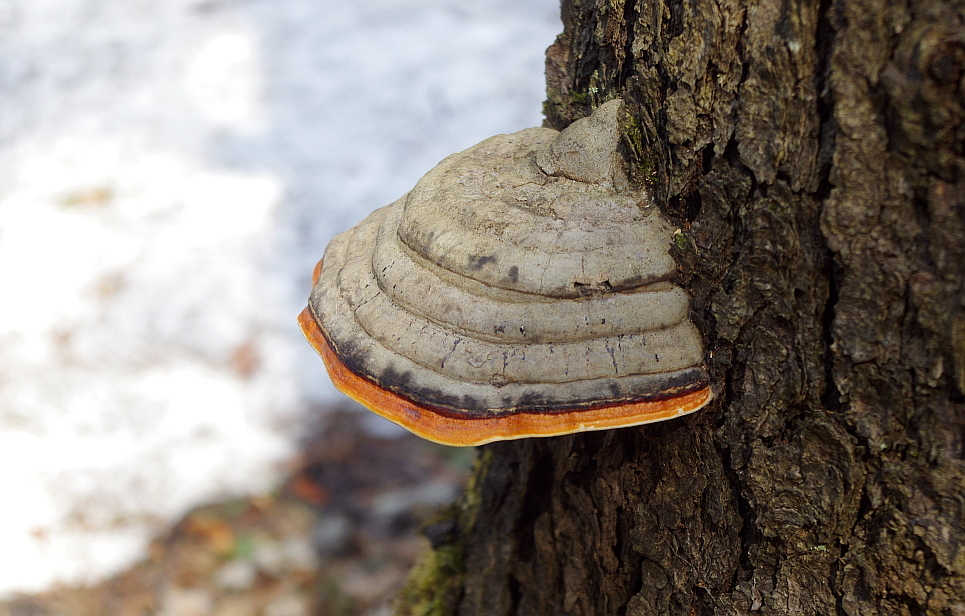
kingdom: Fungi
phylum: Basidiomycota
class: Agaricomycetes
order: Polyporales
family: Fomitopsidaceae
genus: Fomitopsis
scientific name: Fomitopsis pinicola
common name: Red-belted bracket
